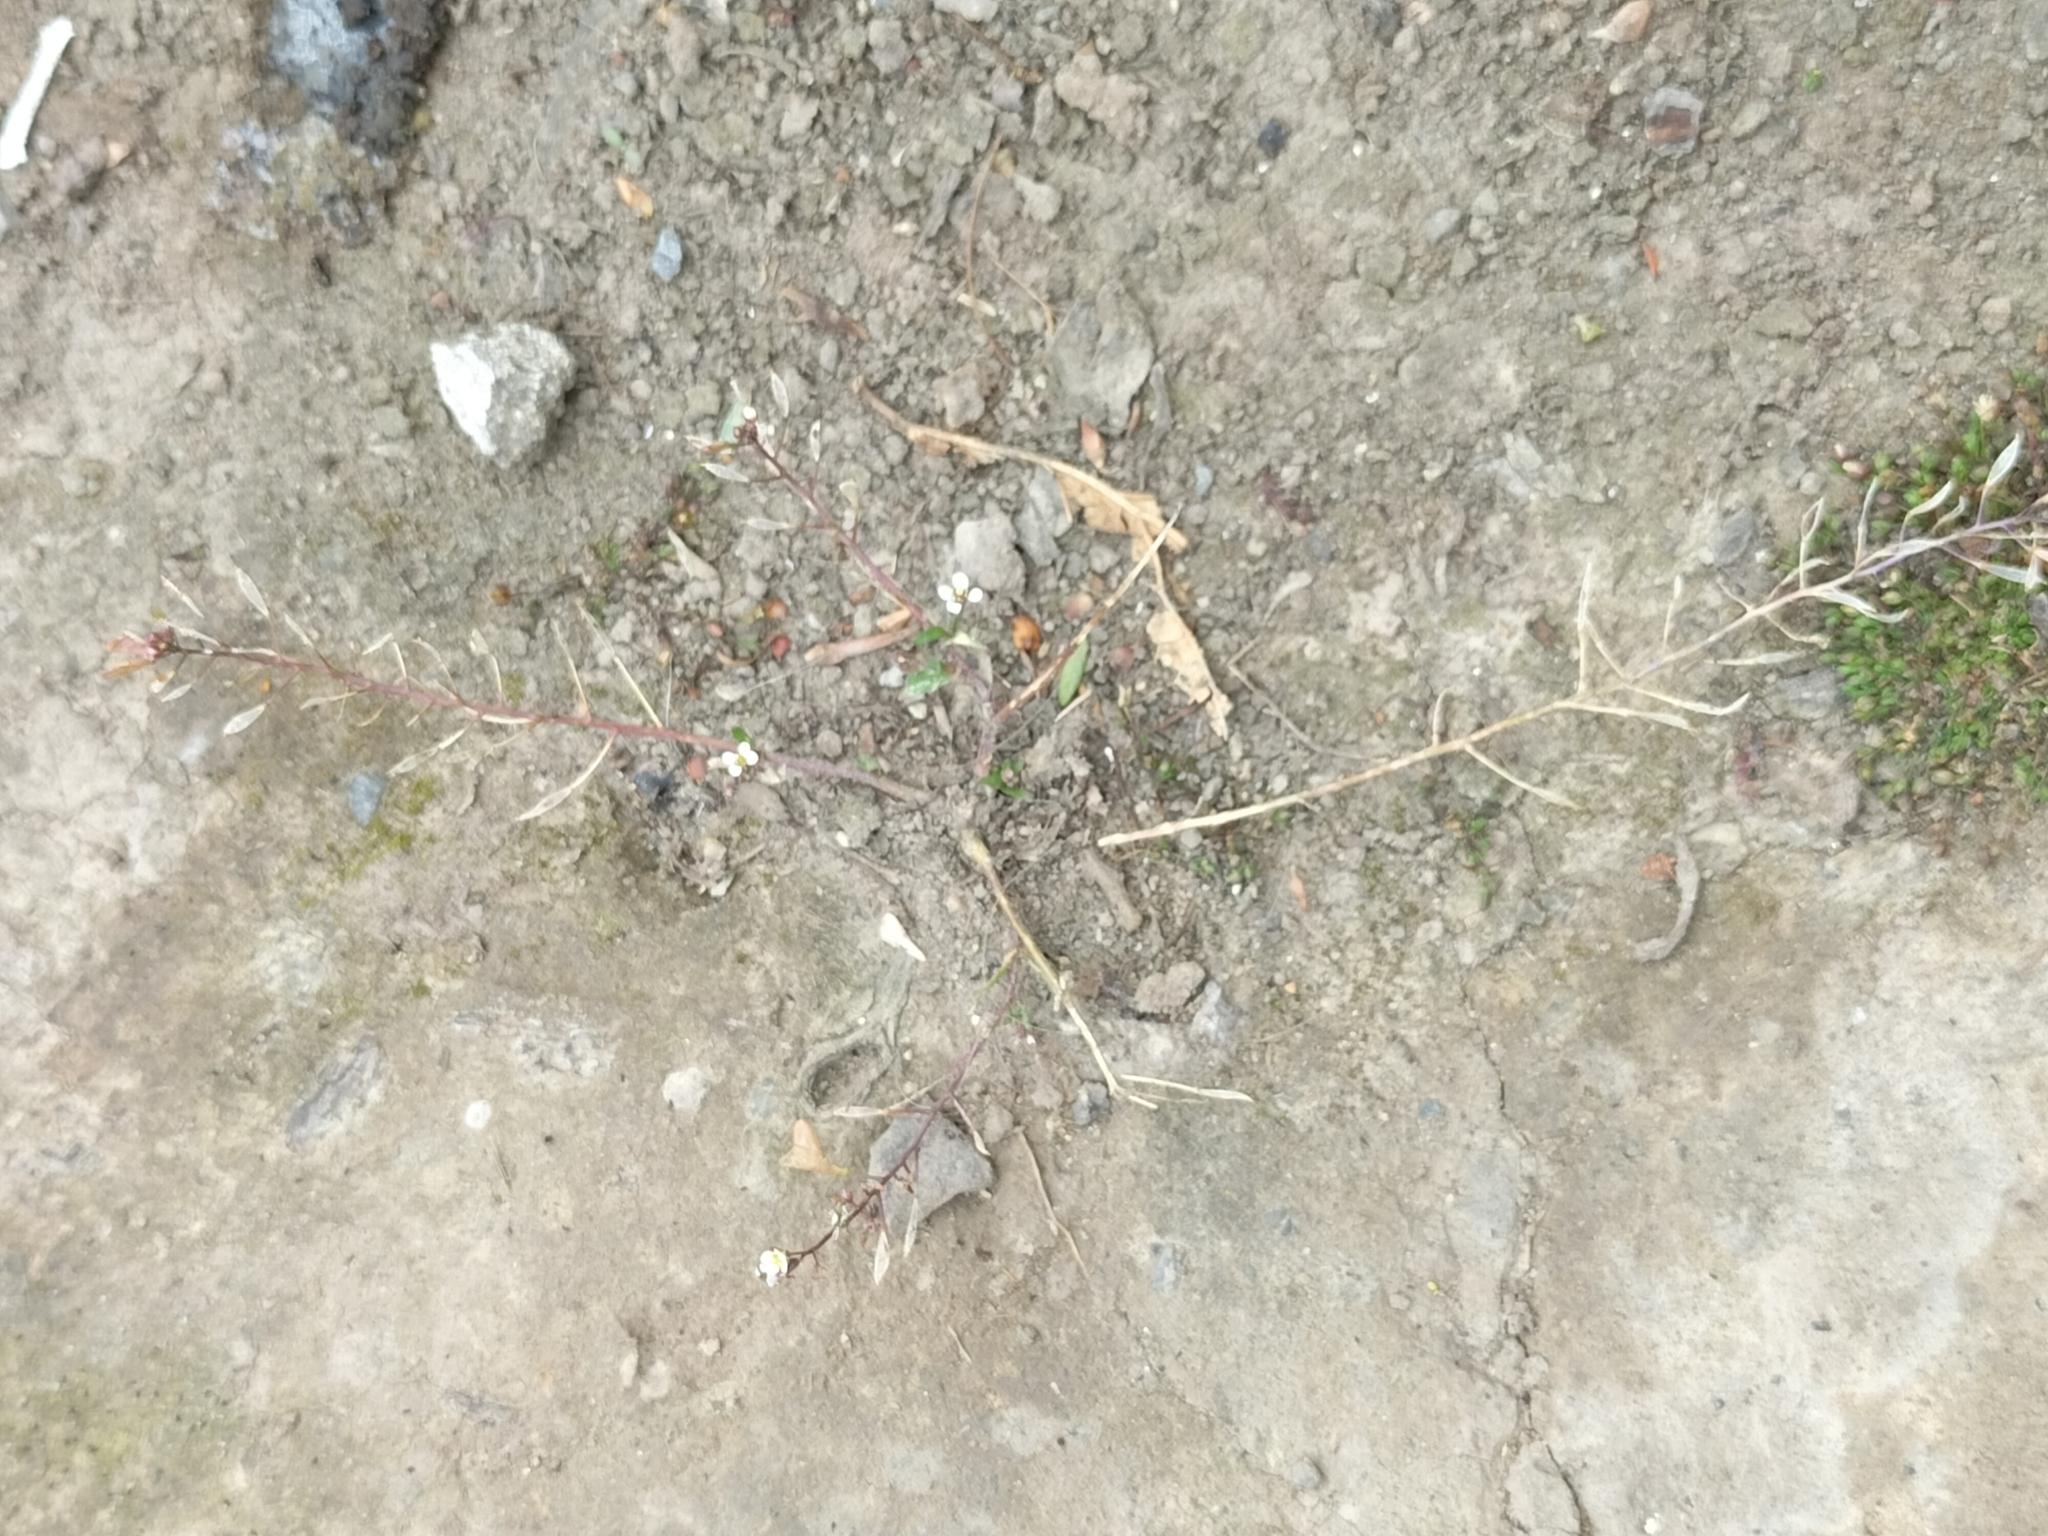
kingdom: Plantae
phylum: Tracheophyta
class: Magnoliopsida
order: Brassicales
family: Brassicaceae
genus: Arabidopsis
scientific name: Arabidopsis thaliana
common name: Thale cress
